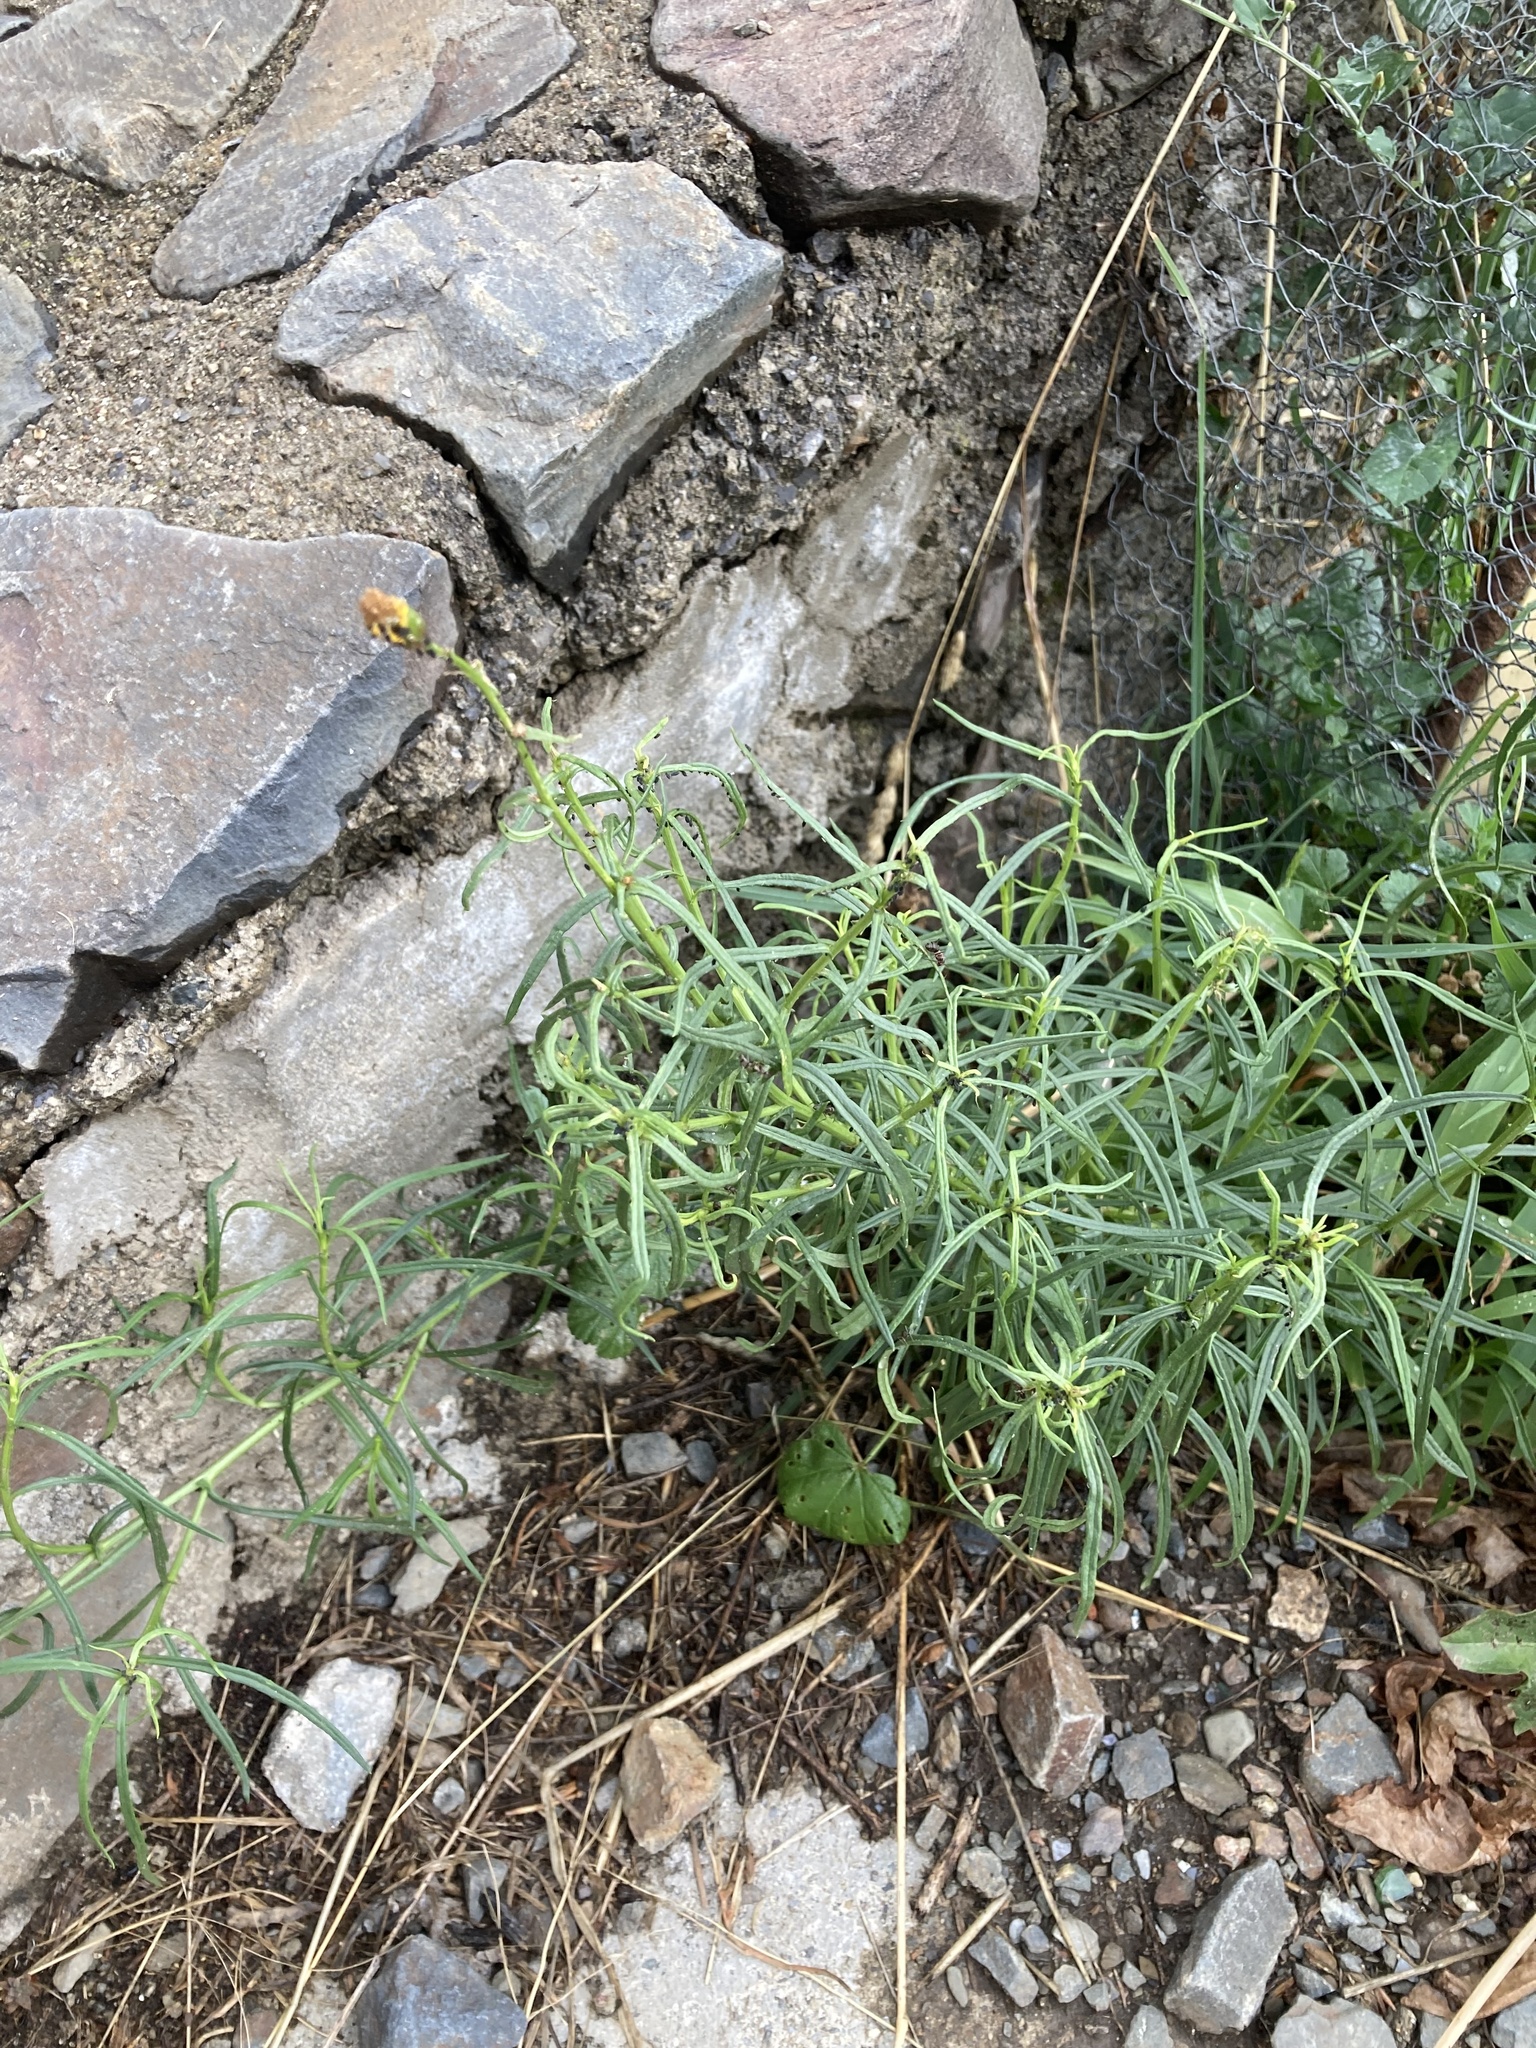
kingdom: Plantae
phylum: Tracheophyta
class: Magnoliopsida
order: Asterales
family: Asteraceae
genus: Senecio
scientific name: Senecio inaequidens
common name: Narrow-leaved ragwort
